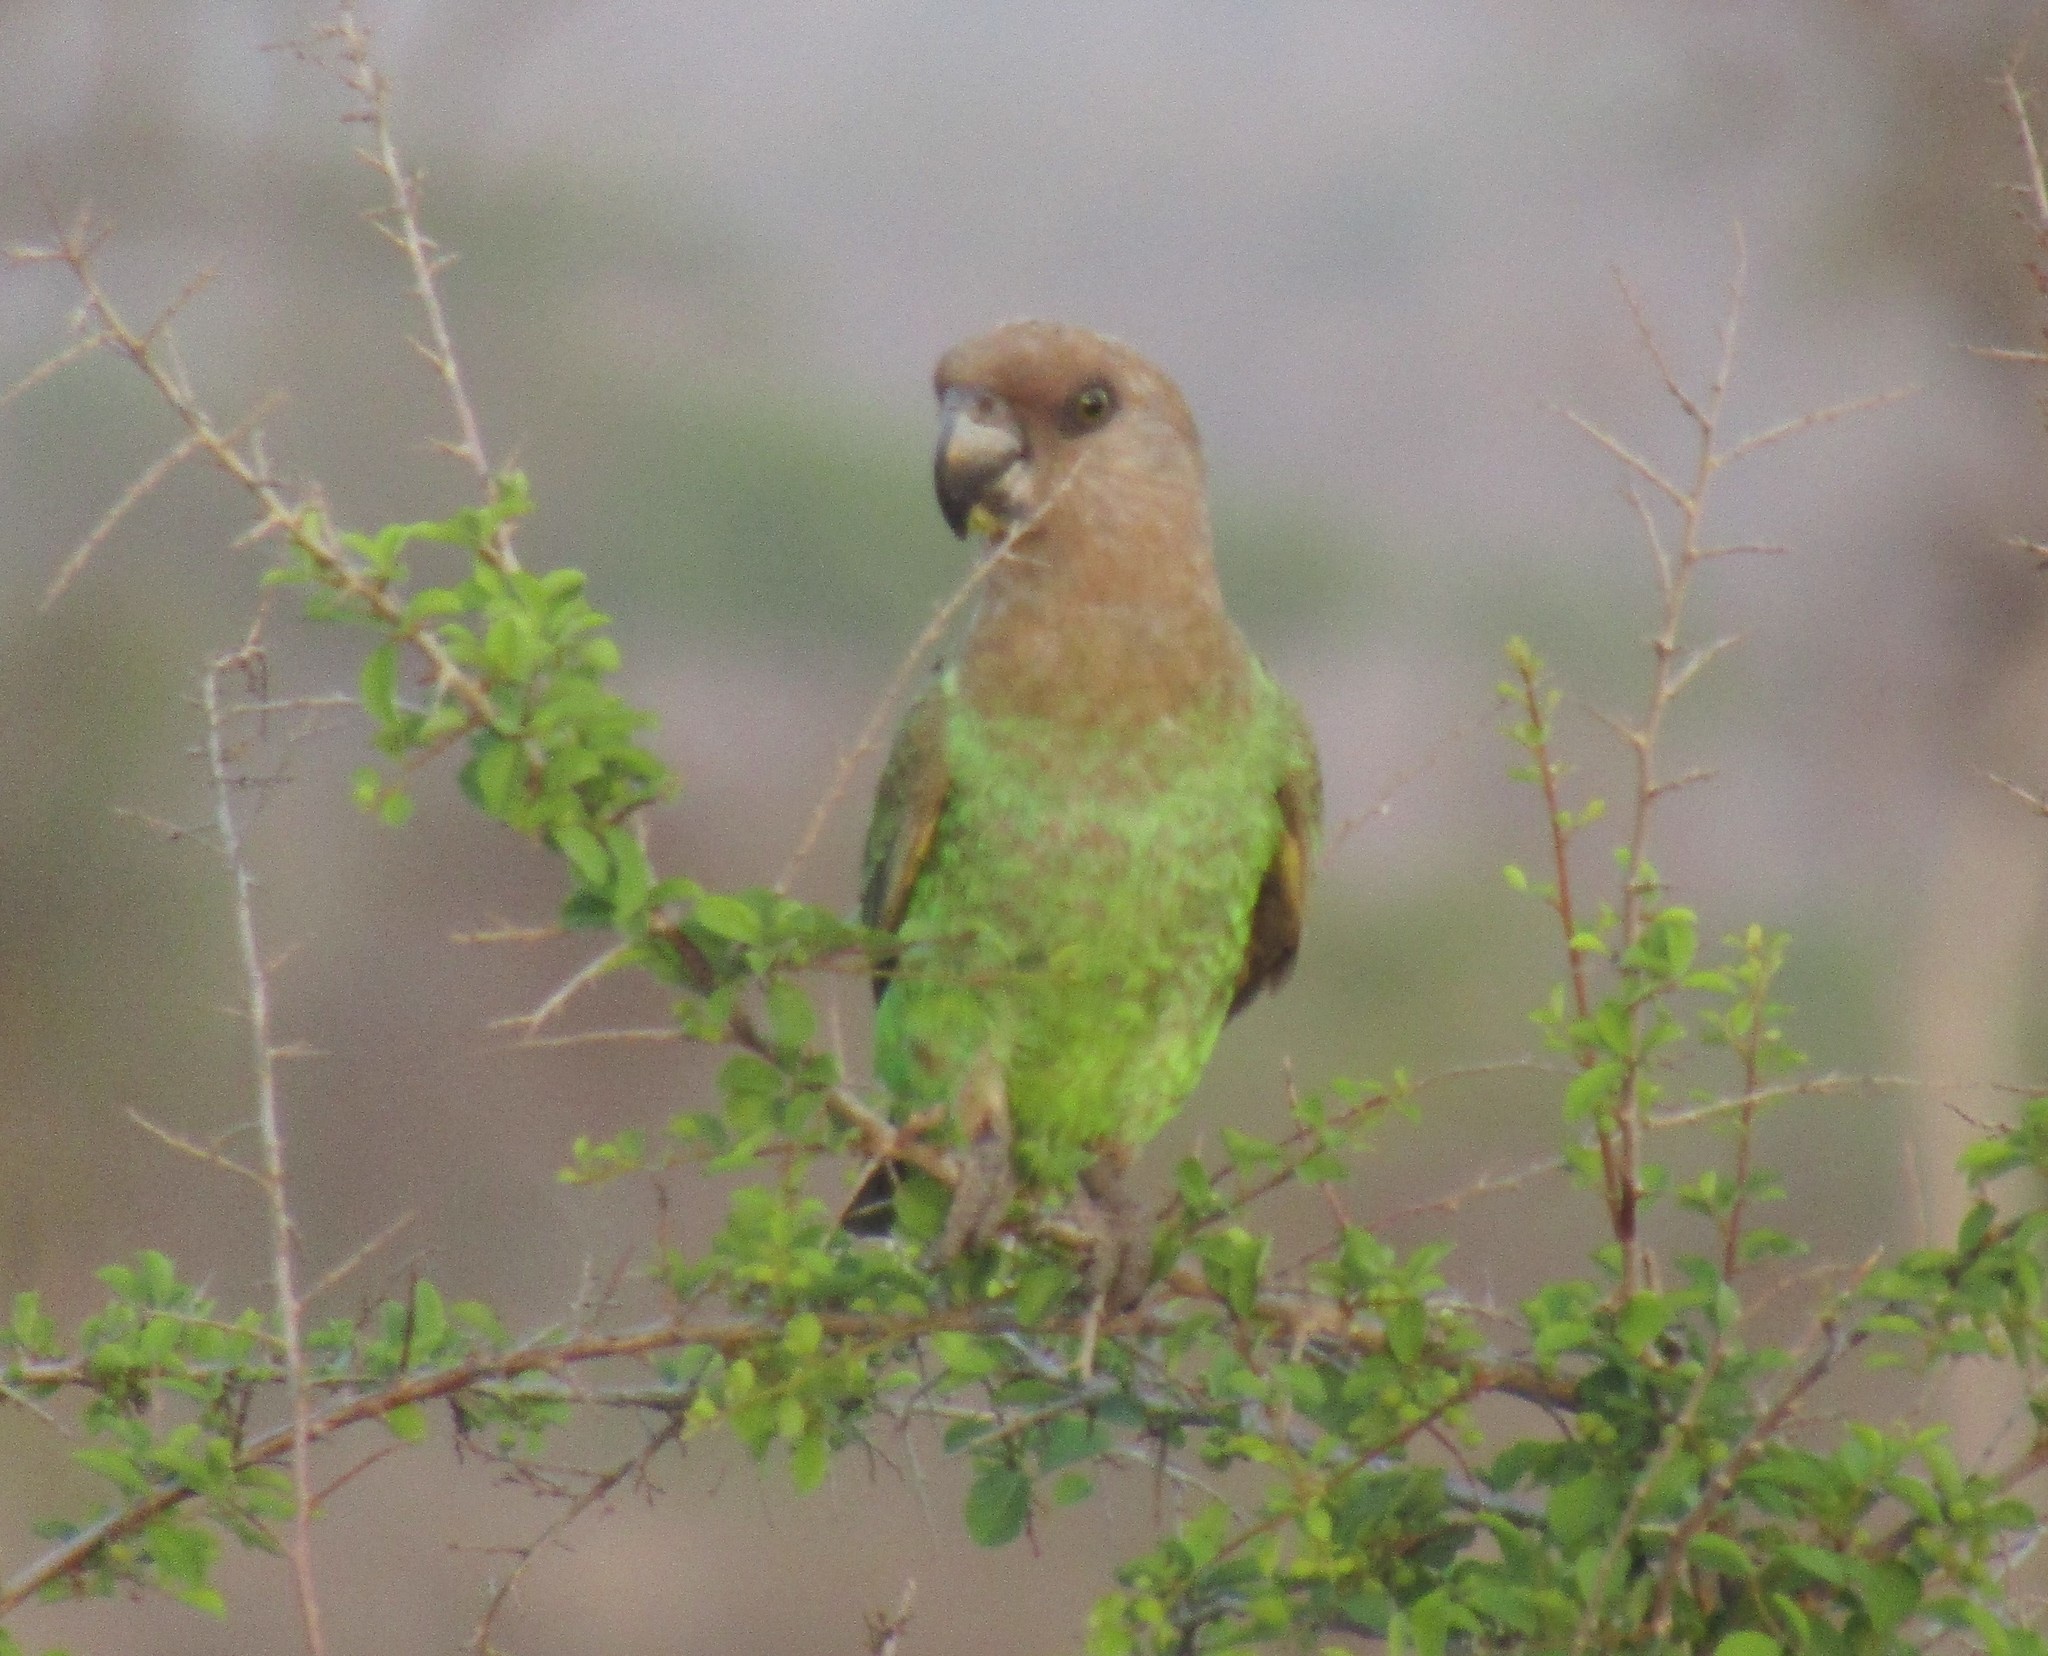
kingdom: Animalia
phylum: Chordata
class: Aves
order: Psittaciformes
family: Psittacidae
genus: Poicephalus
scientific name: Poicephalus cryptoxanthus
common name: Brown-headed parrot
